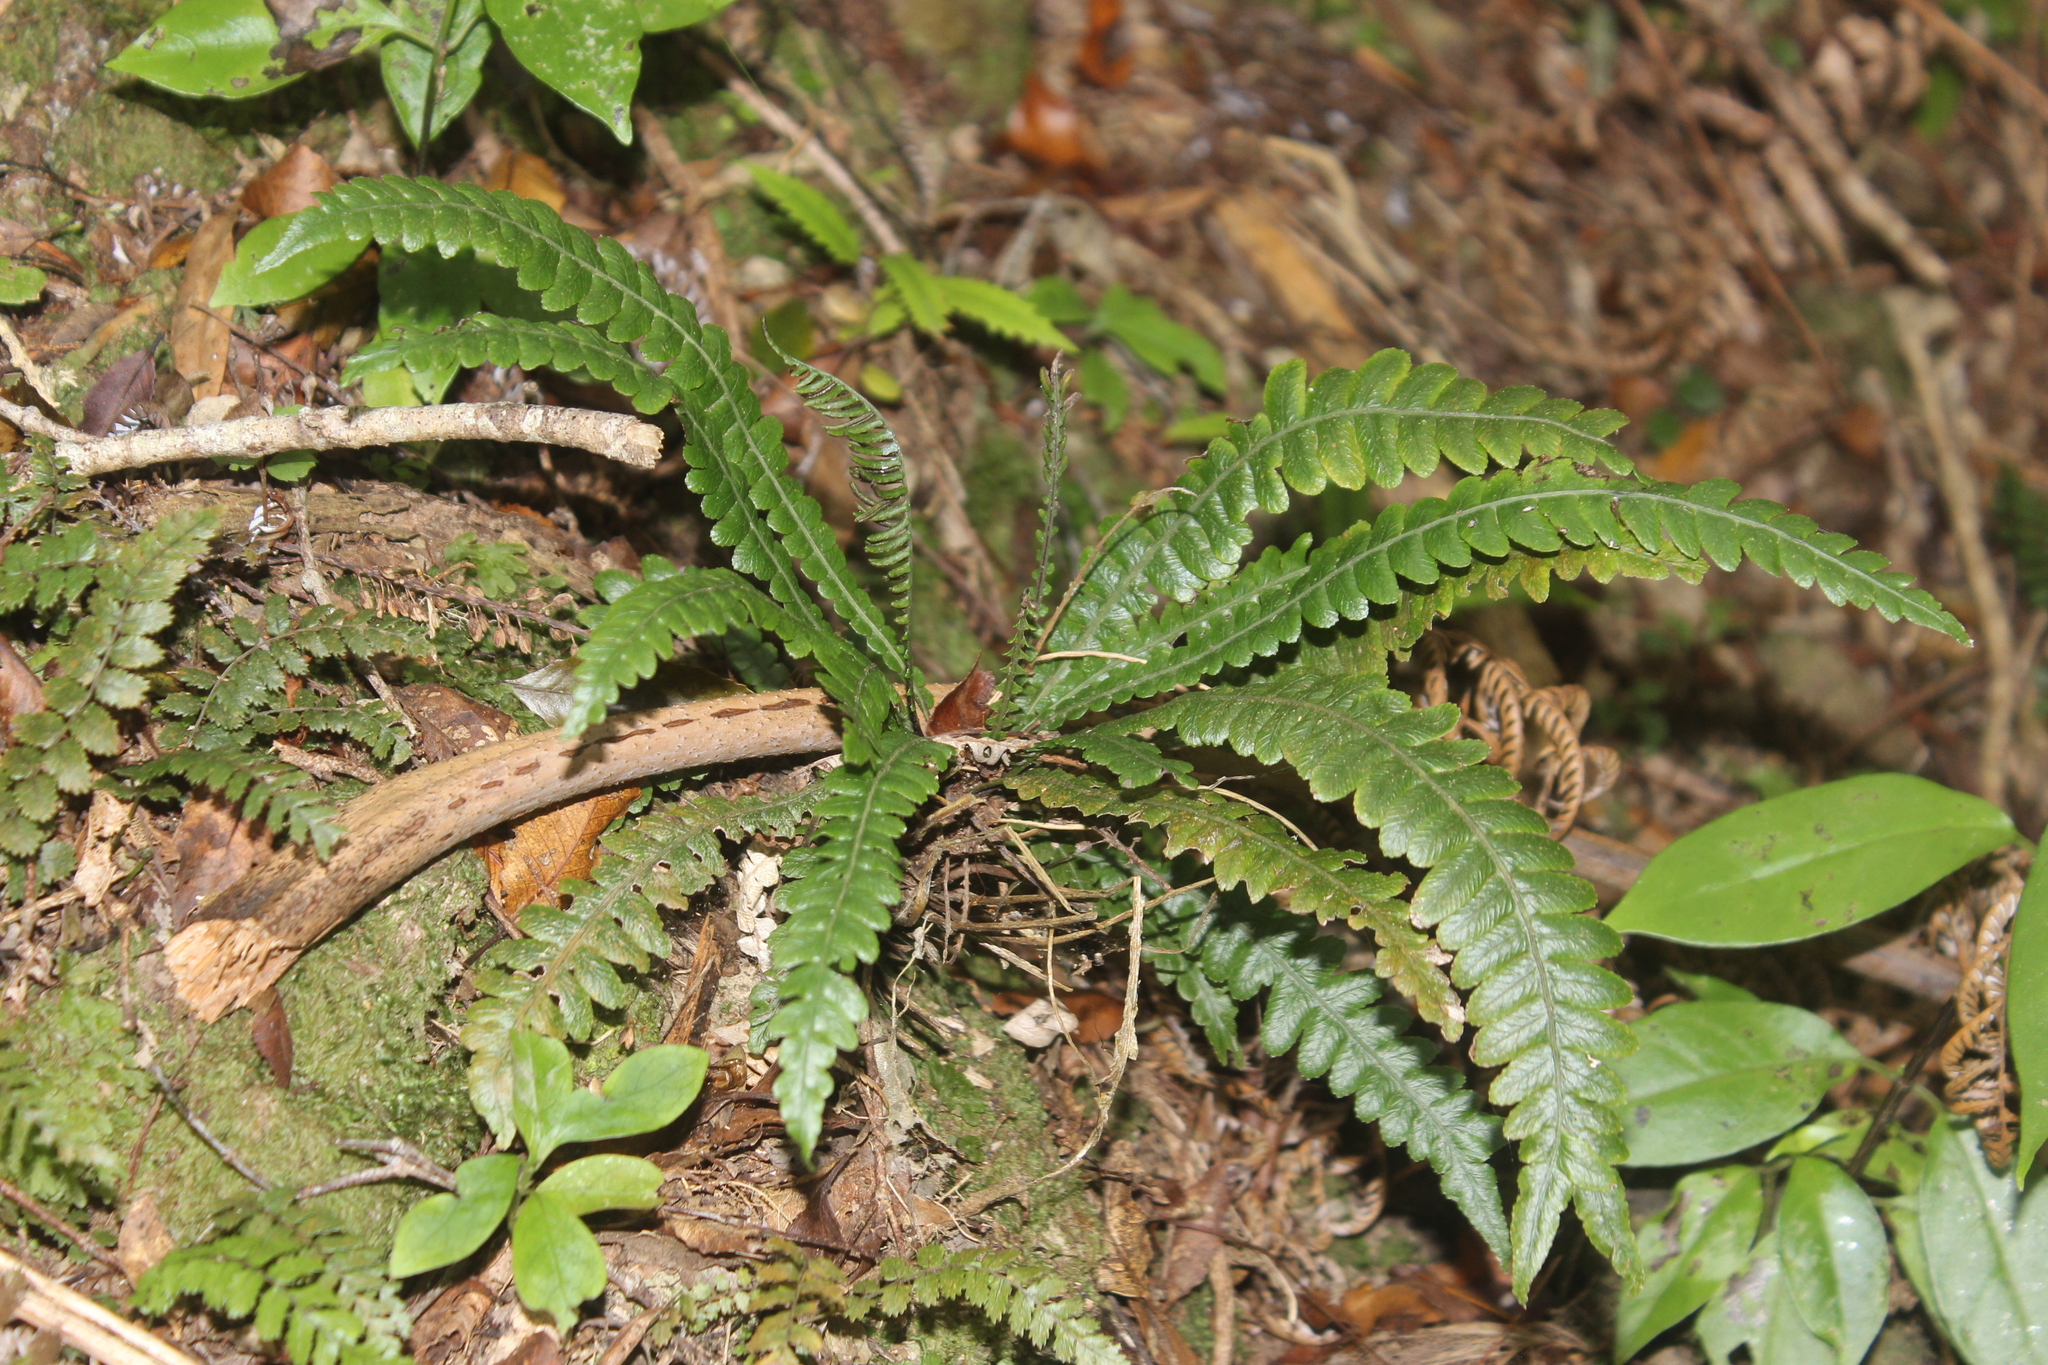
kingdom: Plantae
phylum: Tracheophyta
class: Polypodiopsida
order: Polypodiales
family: Blechnaceae
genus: Austroblechnum
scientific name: Austroblechnum lanceolatum
